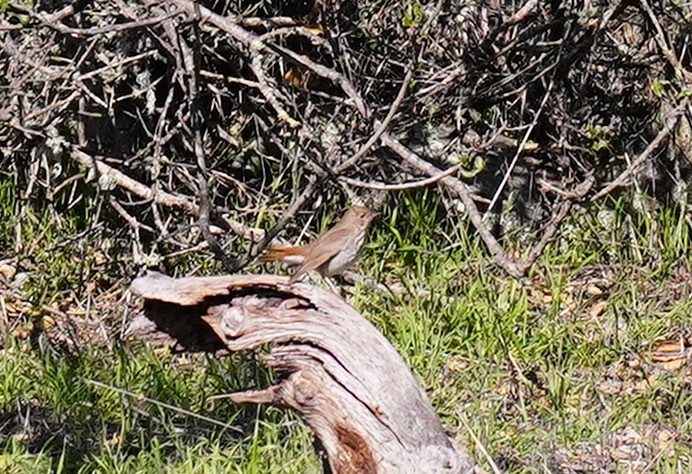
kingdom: Animalia
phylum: Chordata
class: Aves
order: Passeriformes
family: Turdidae
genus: Catharus
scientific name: Catharus guttatus
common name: Hermit thrush
